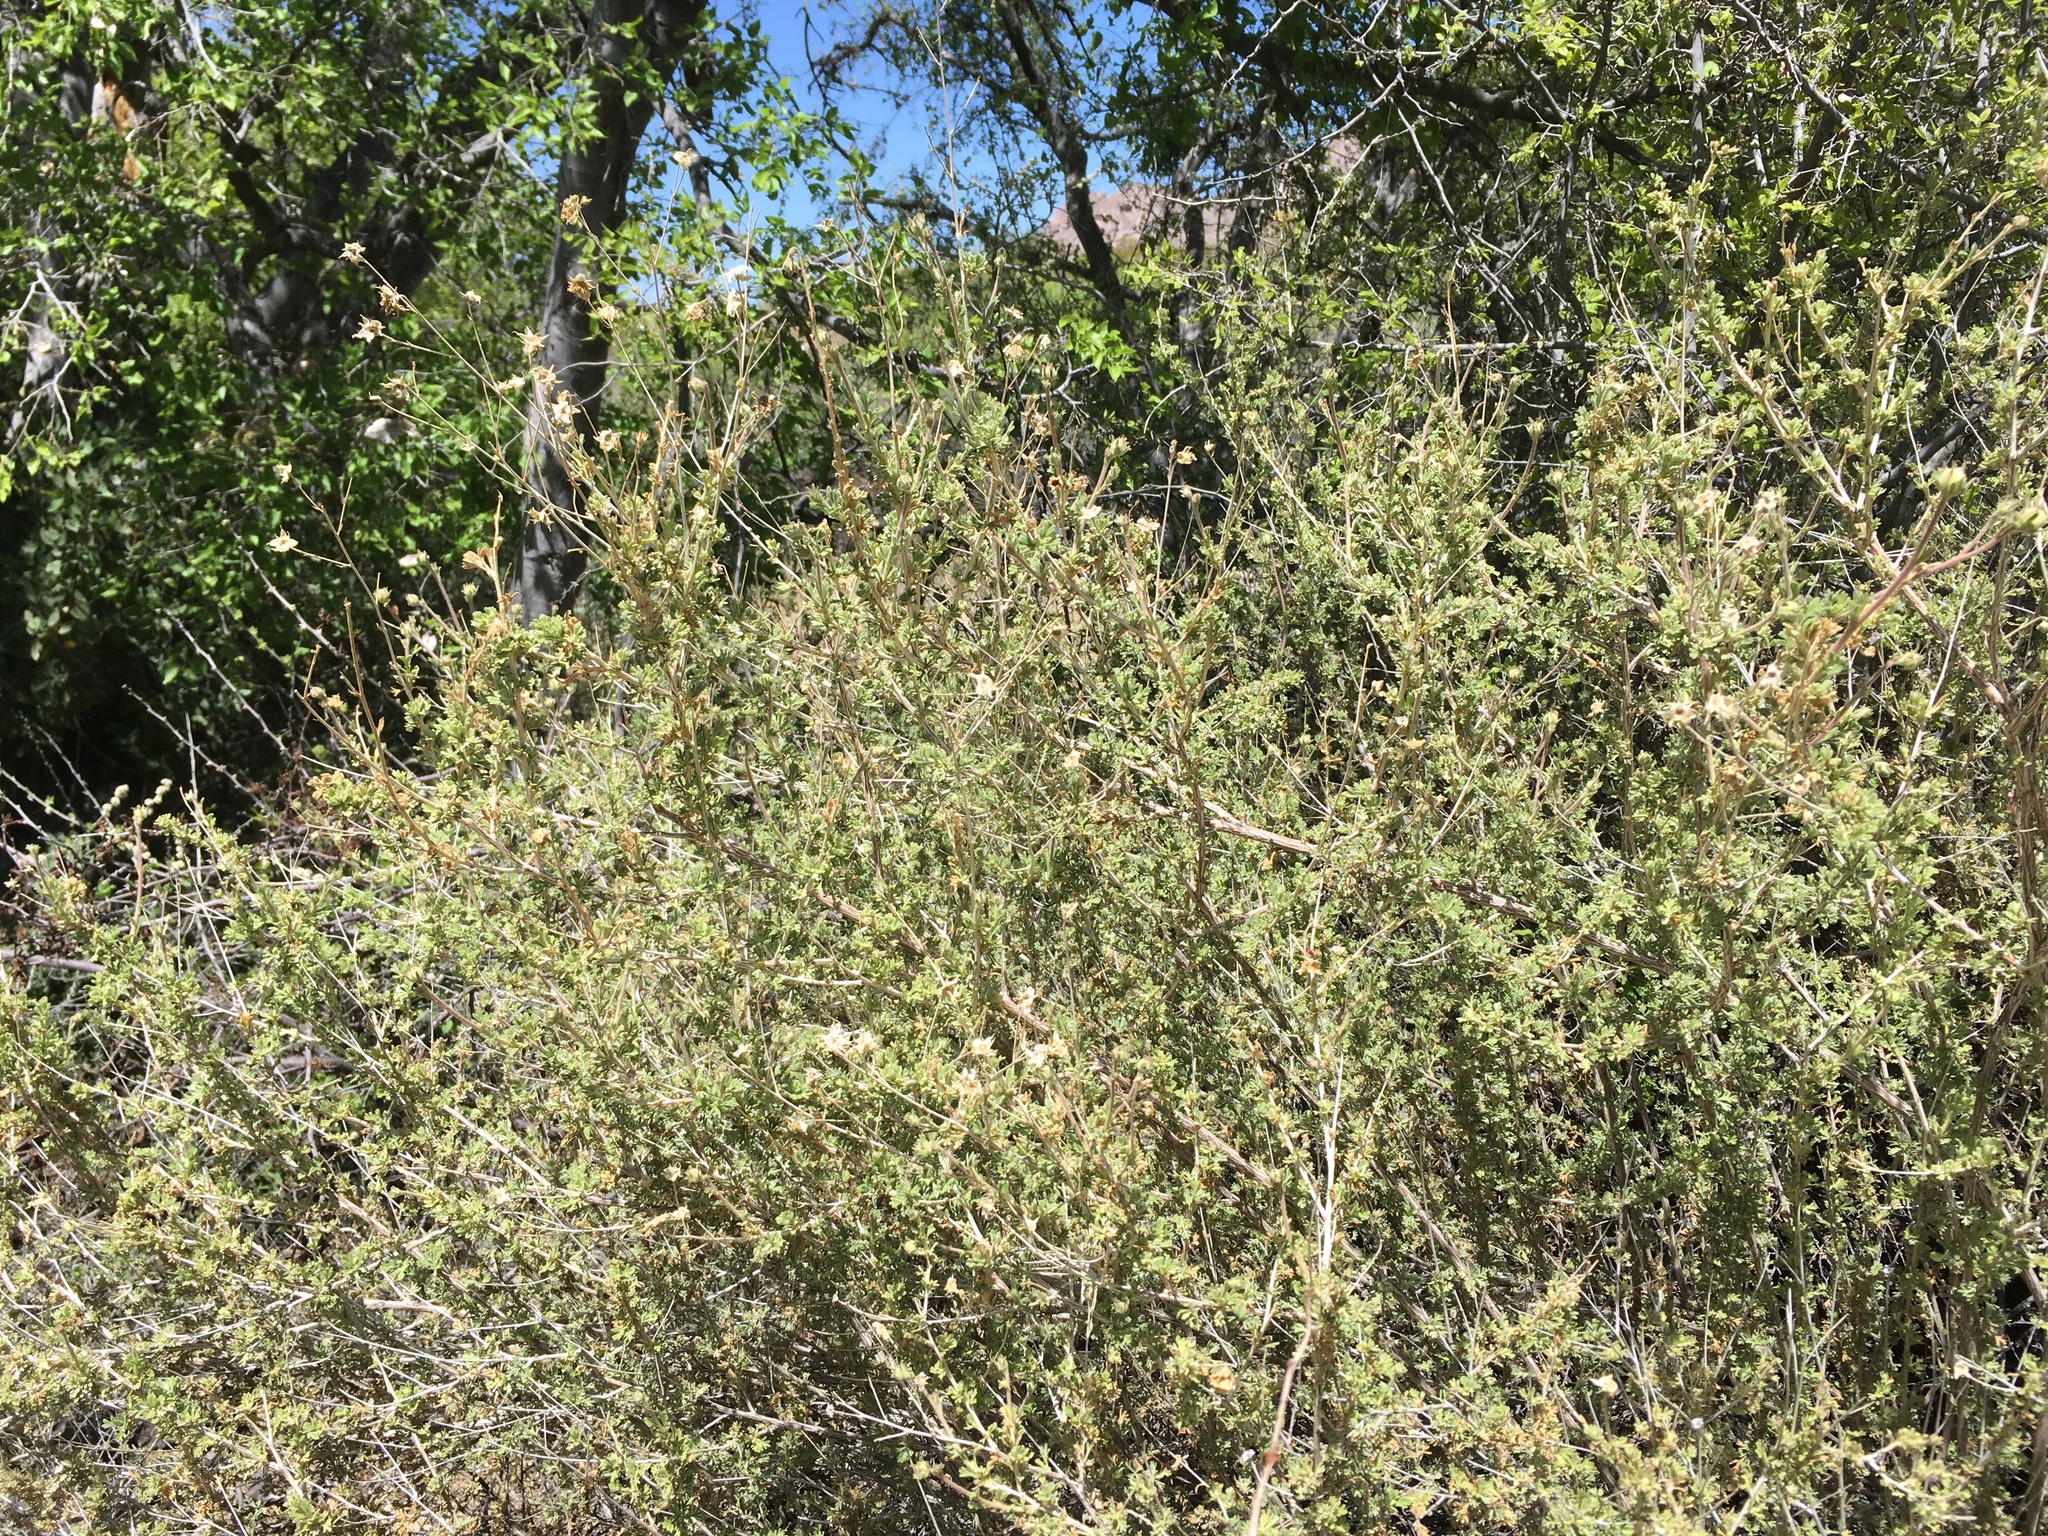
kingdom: Plantae
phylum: Tracheophyta
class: Magnoliopsida
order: Rosales
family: Rosaceae
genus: Fallugia
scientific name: Fallugia paradoxa
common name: Apache-plume
